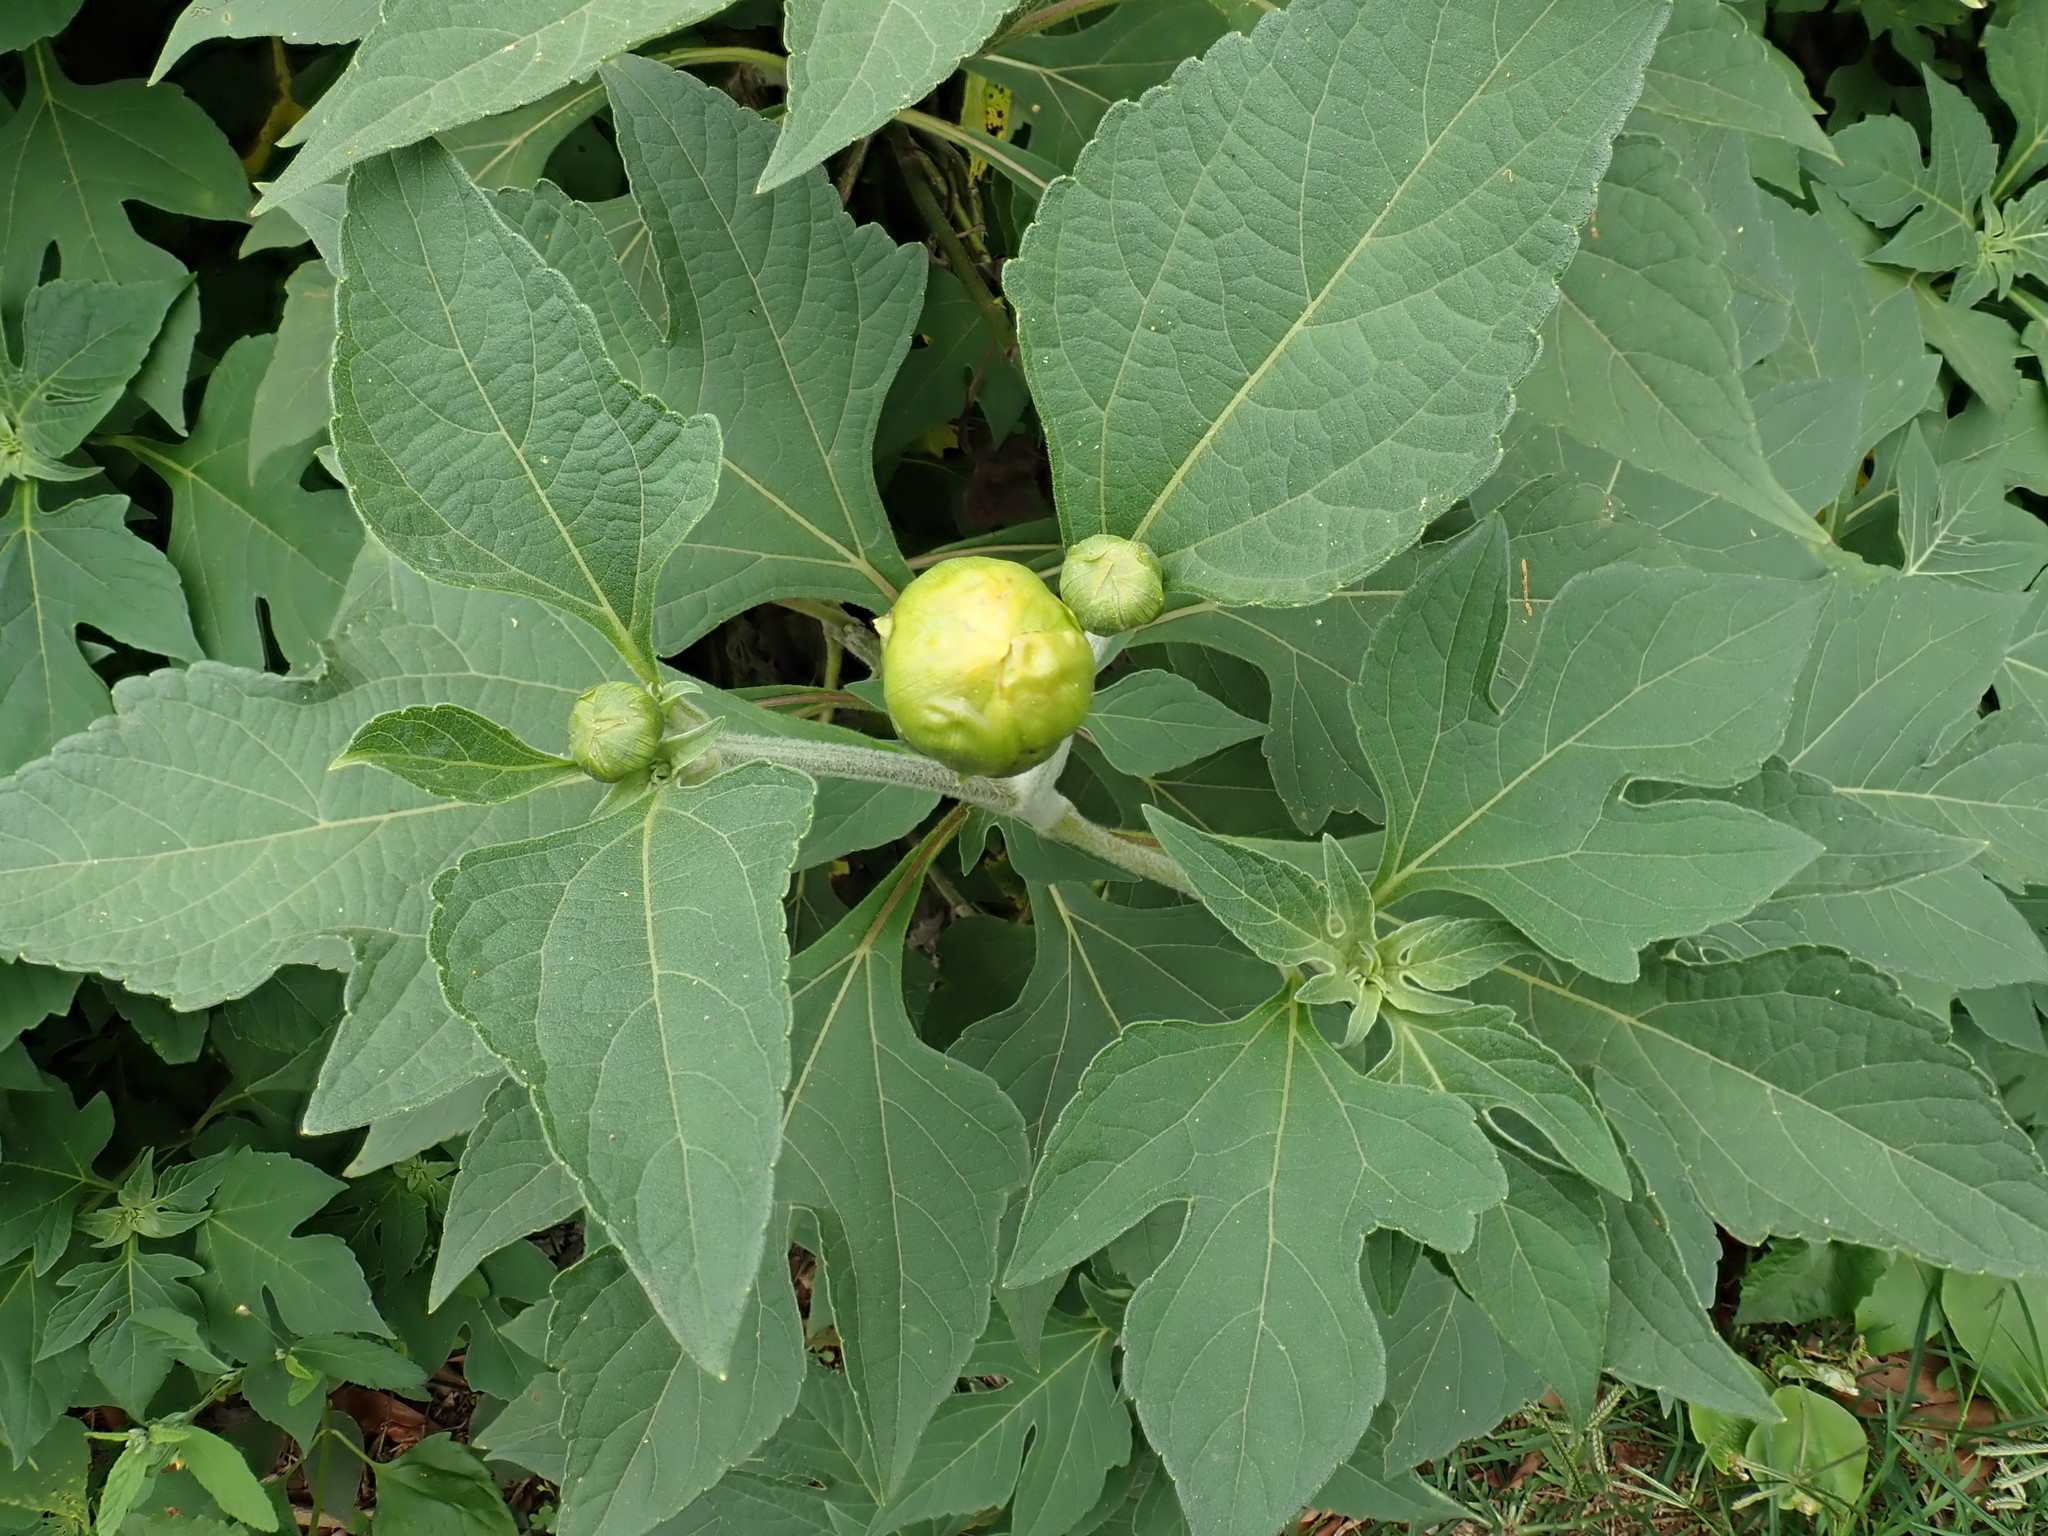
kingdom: Plantae
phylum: Tracheophyta
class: Magnoliopsida
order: Asterales
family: Asteraceae
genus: Tithonia
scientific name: Tithonia diversifolia
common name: Tree marigold
